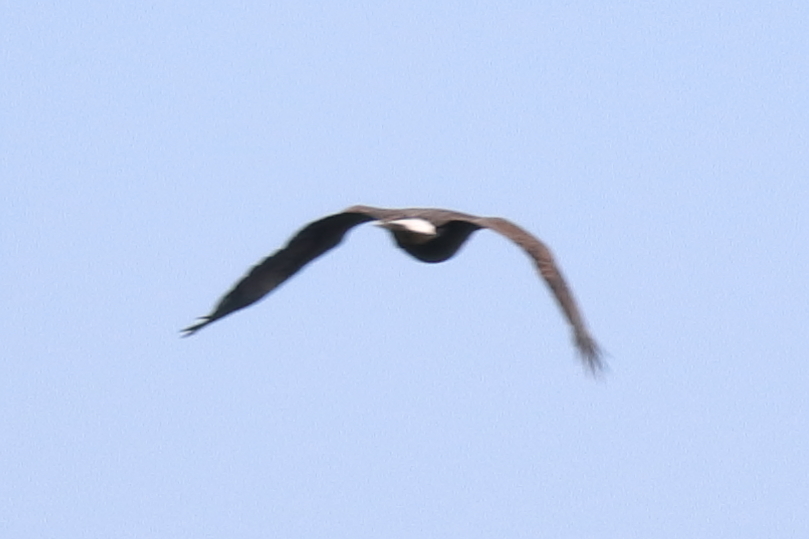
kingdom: Animalia
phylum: Chordata
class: Aves
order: Accipitriformes
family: Accipitridae
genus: Haliaeetus
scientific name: Haliaeetus leucocephalus
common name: Bald eagle
